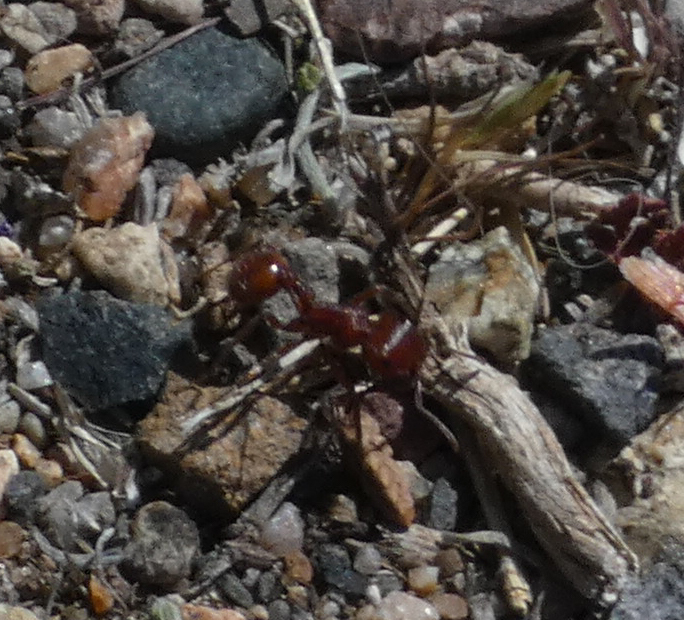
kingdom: Animalia
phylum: Arthropoda
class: Insecta
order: Hymenoptera
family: Formicidae
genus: Pogonomyrmex
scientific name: Pogonomyrmex
